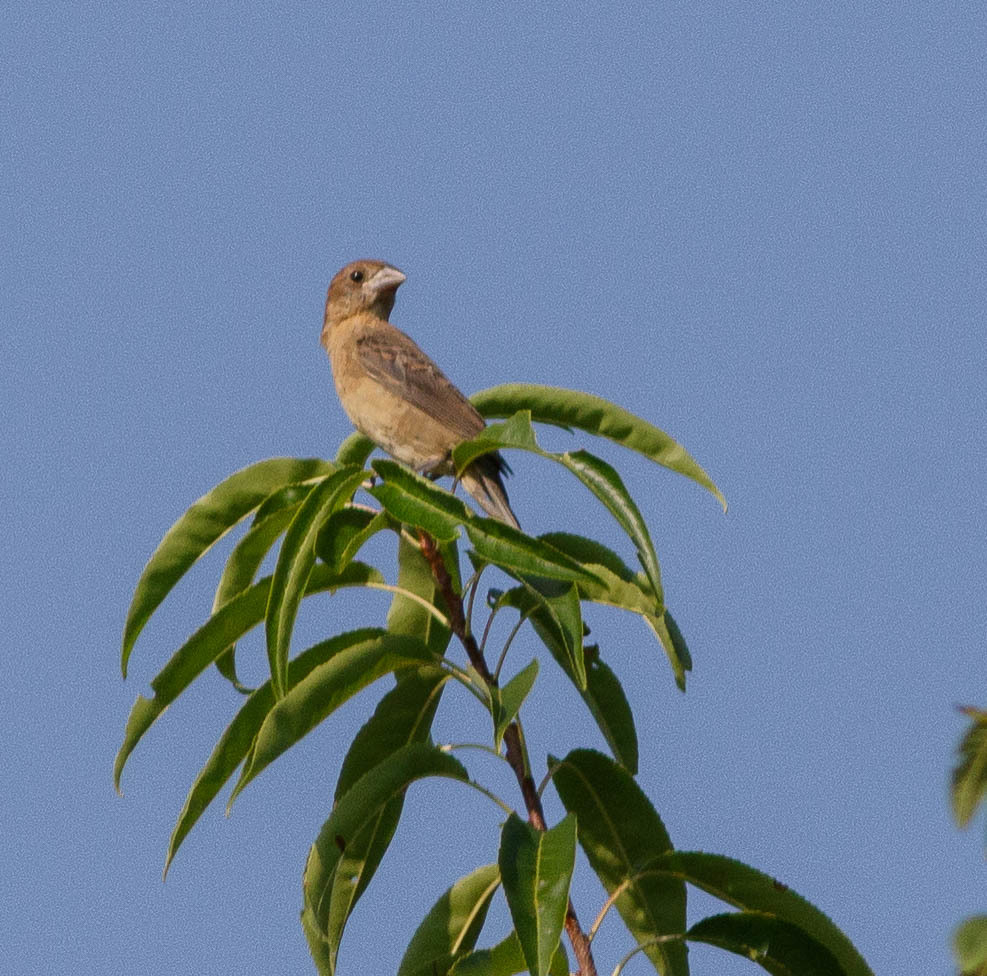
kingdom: Animalia
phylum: Chordata
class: Aves
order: Passeriformes
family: Cardinalidae
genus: Passerina
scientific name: Passerina caerulea
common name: Blue grosbeak
